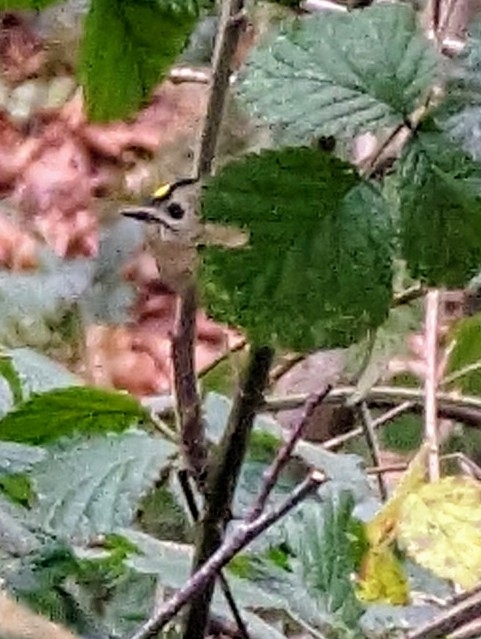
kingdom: Animalia
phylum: Chordata
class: Aves
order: Passeriformes
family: Regulidae
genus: Regulus
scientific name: Regulus regulus
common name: Goldcrest
